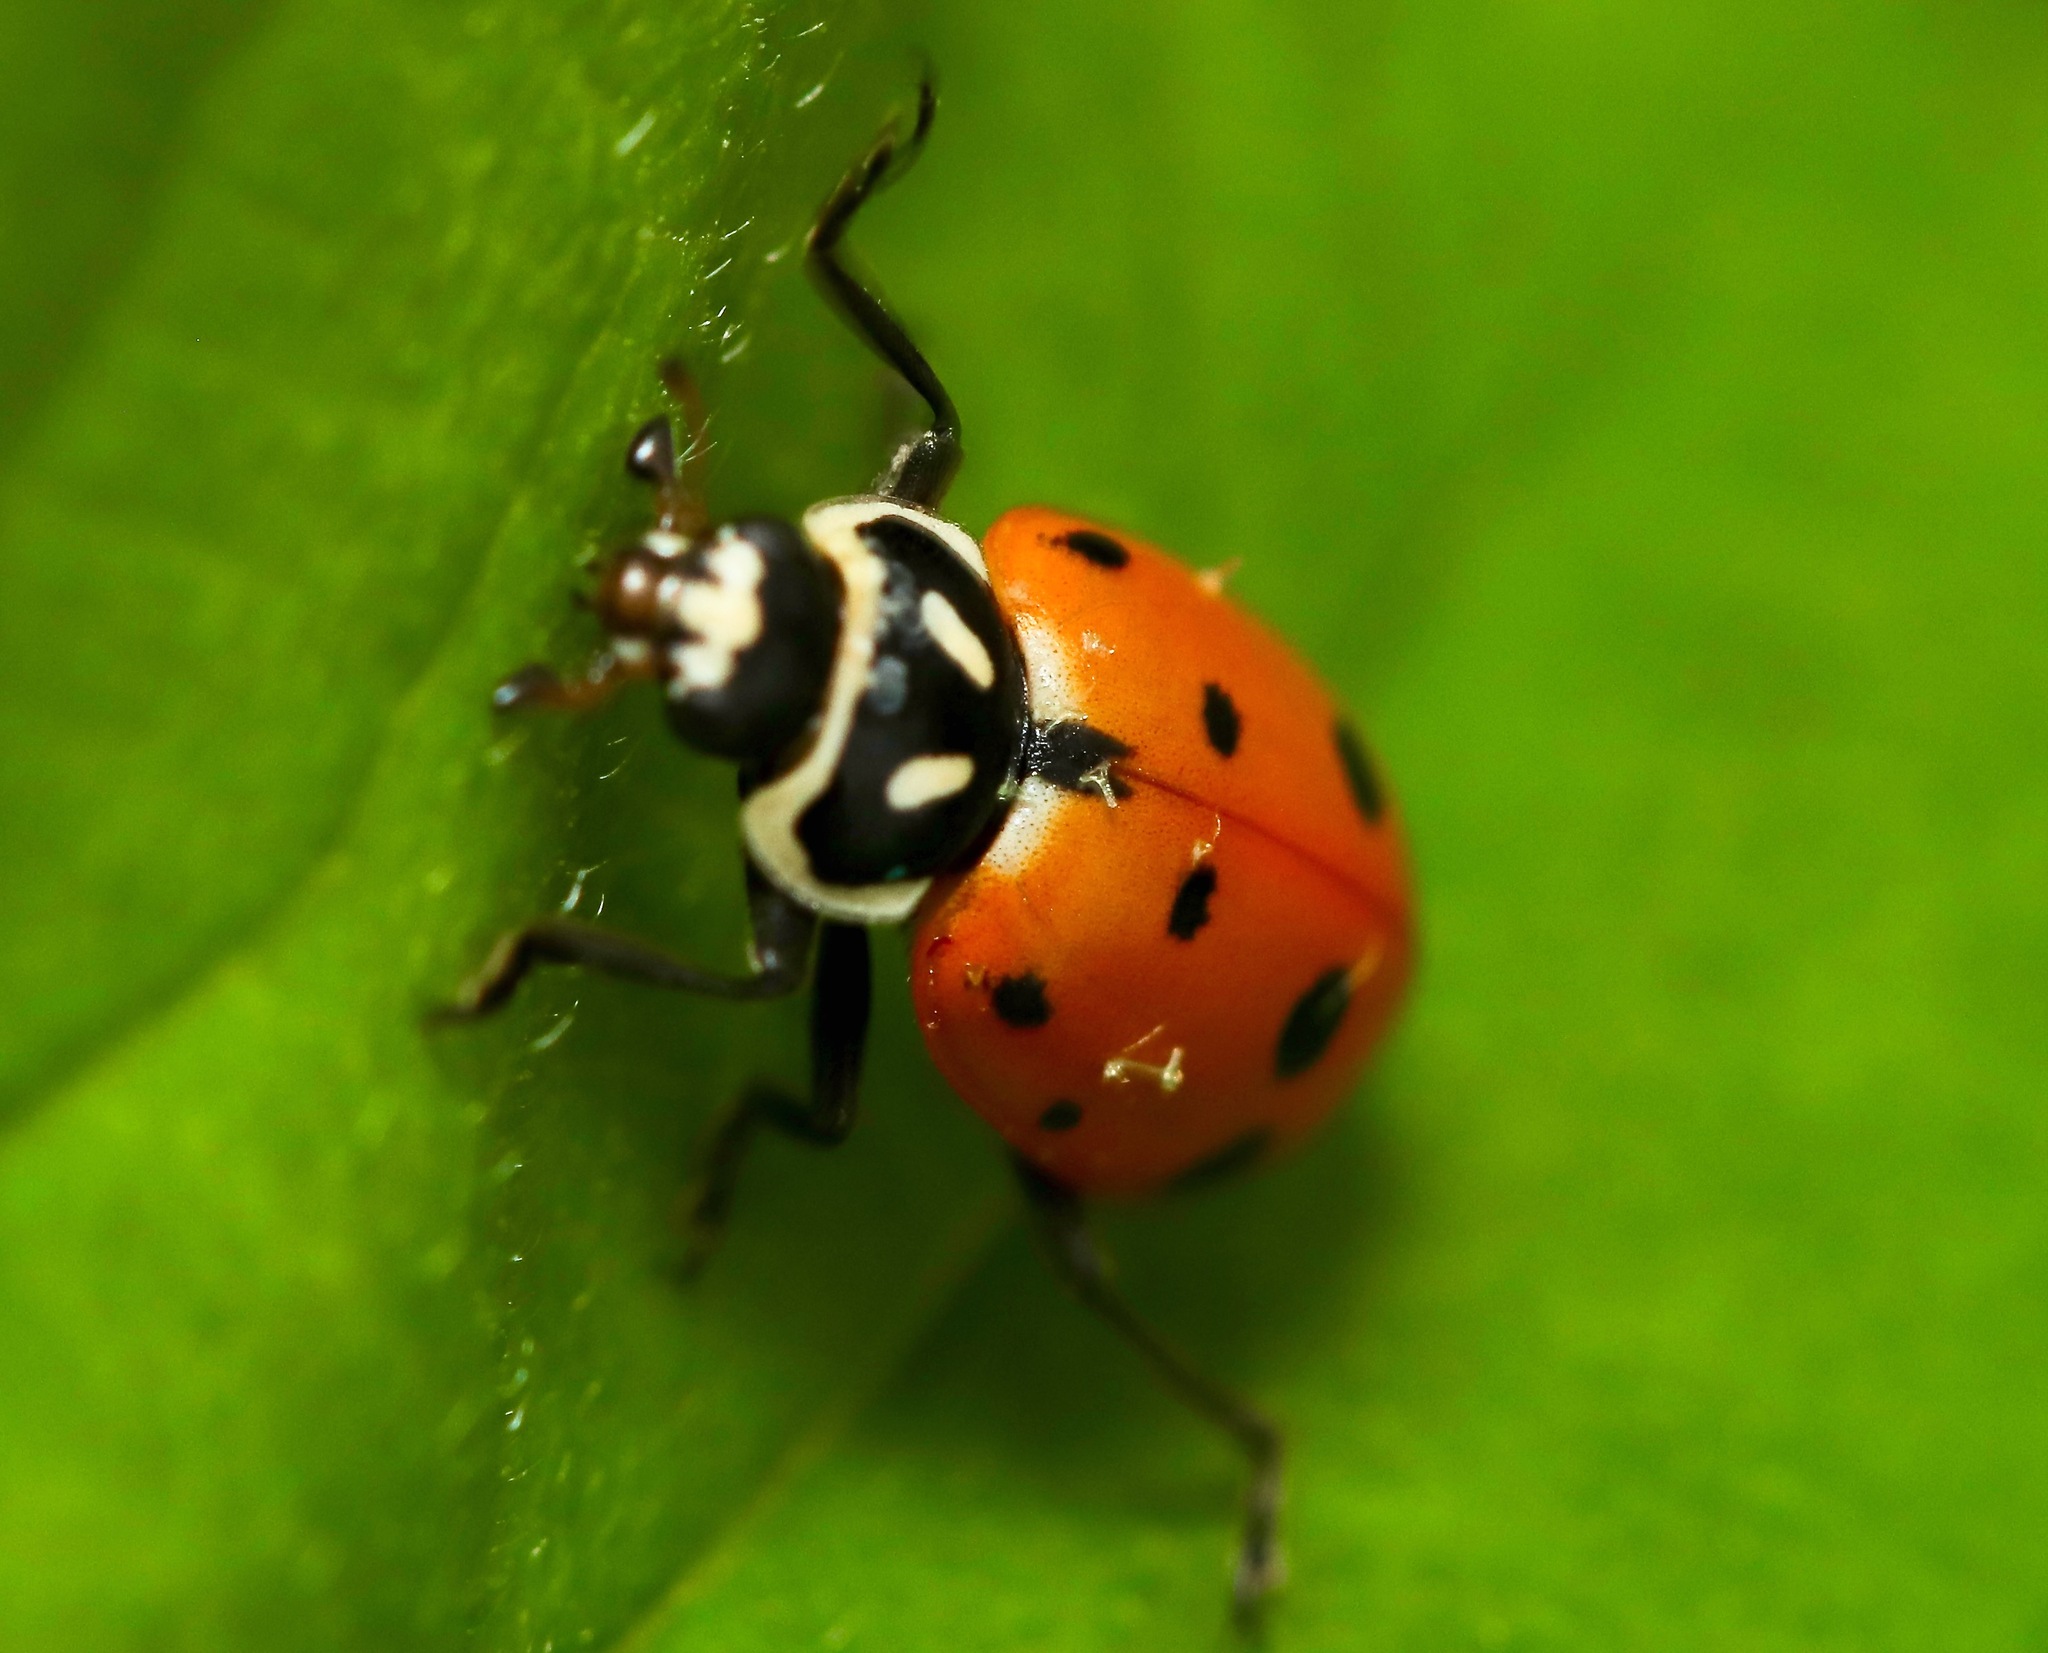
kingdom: Animalia
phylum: Arthropoda
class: Insecta
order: Coleoptera
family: Coccinellidae
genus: Hippodamia
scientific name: Hippodamia convergens
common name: Convergent lady beetle
